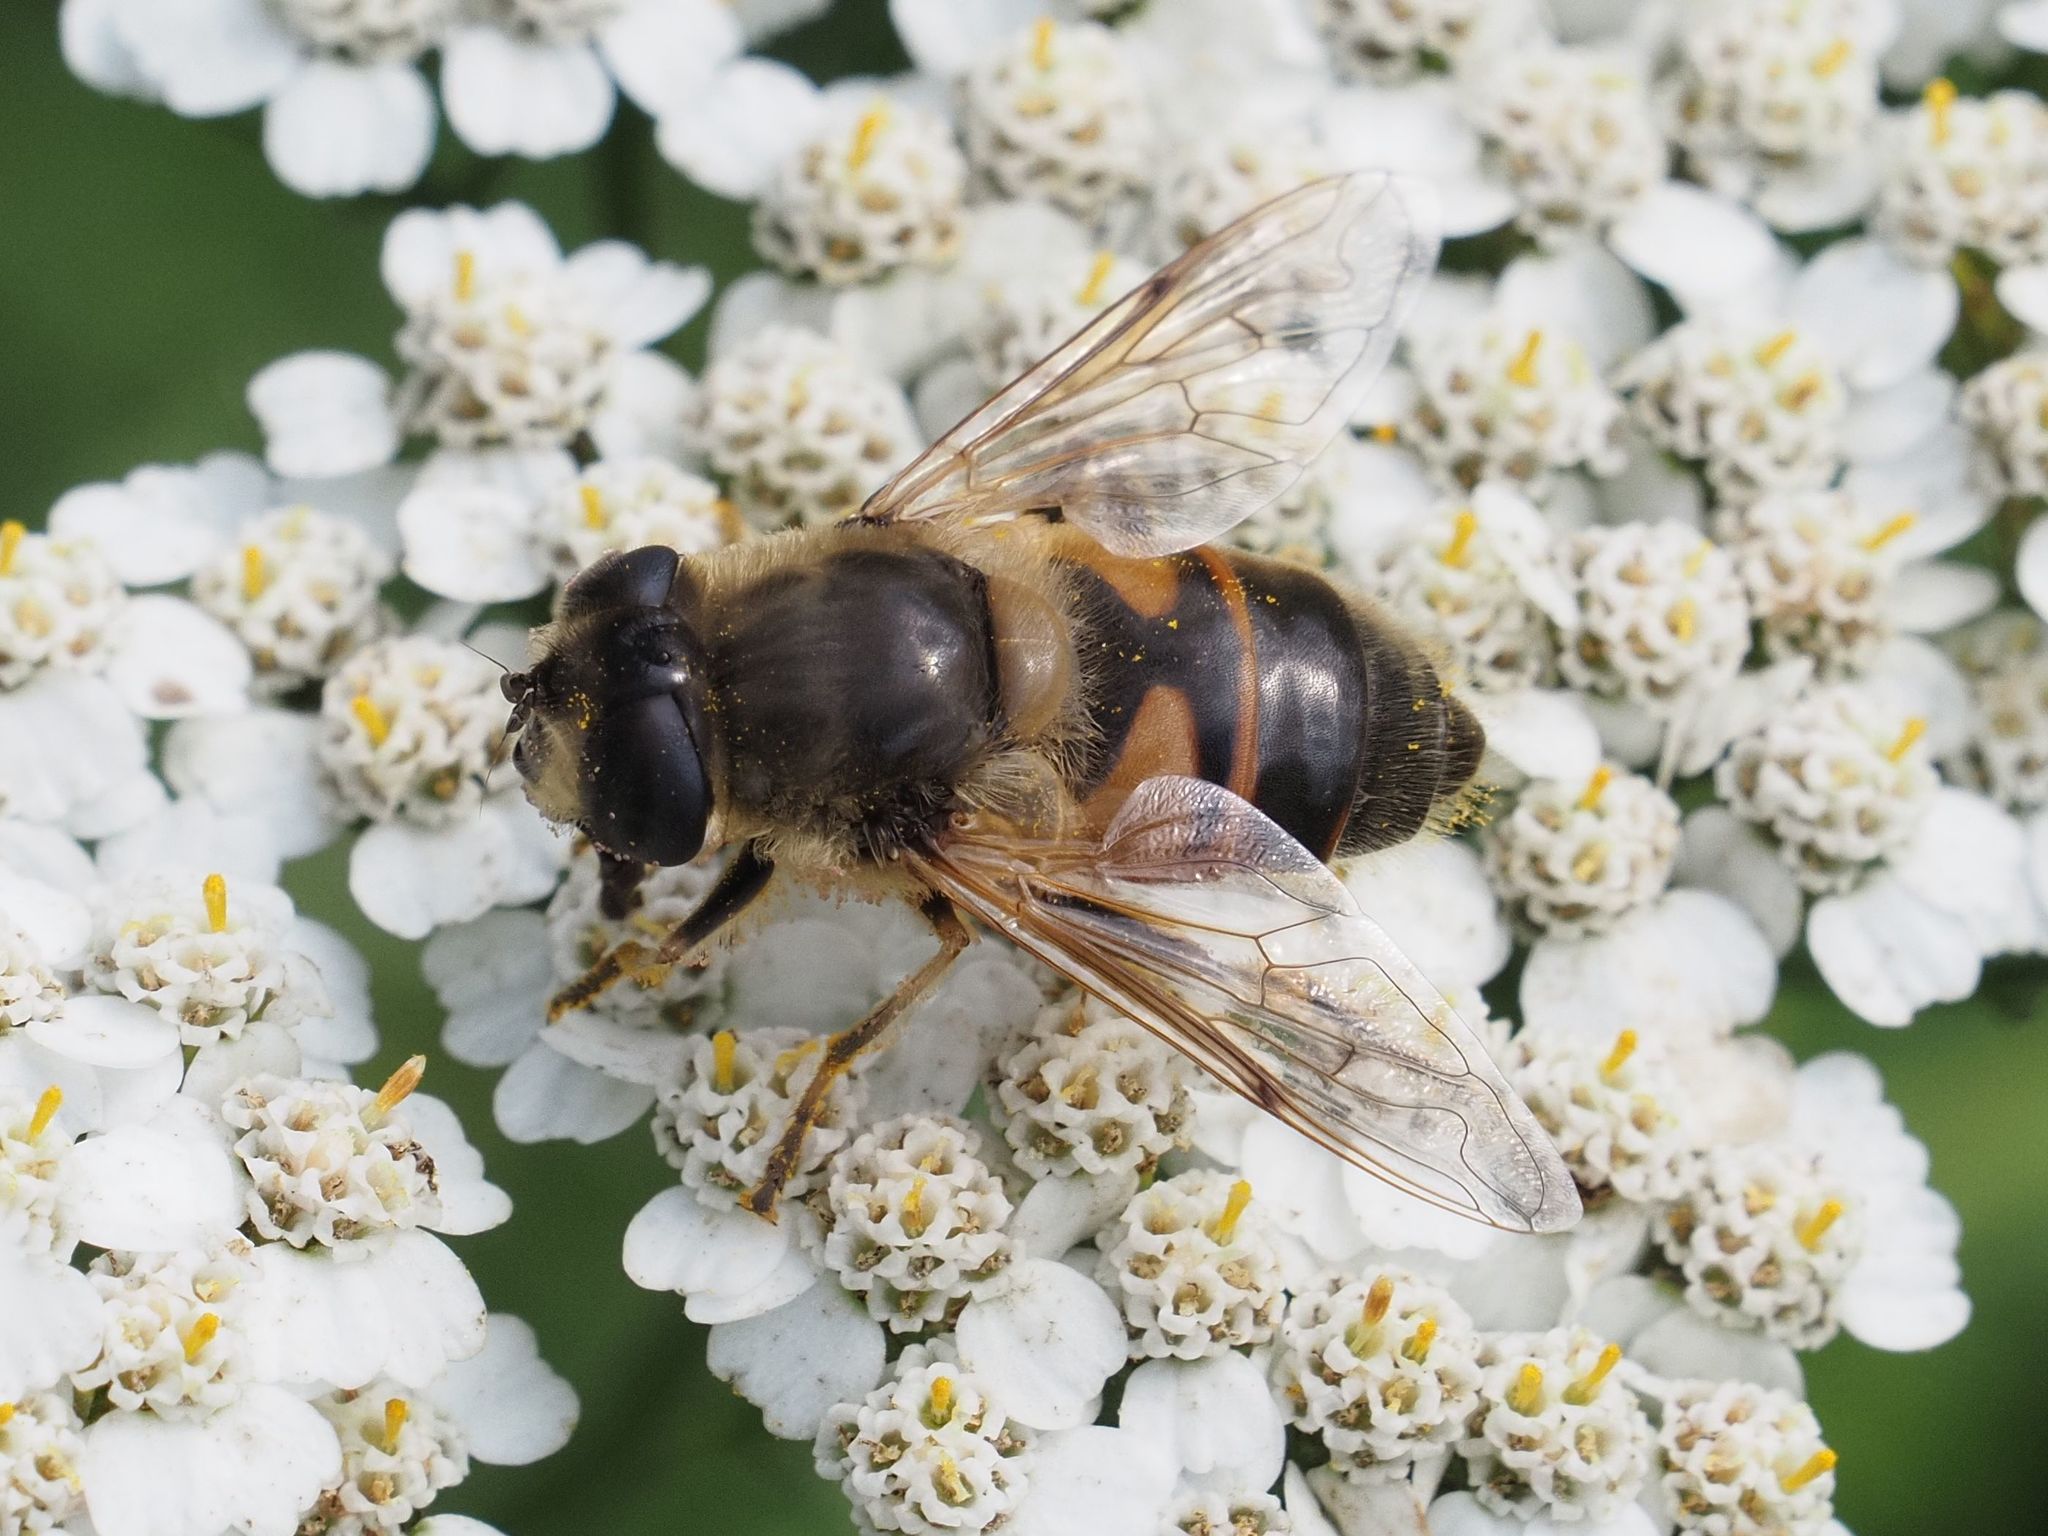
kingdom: Animalia
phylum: Arthropoda
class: Insecta
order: Diptera
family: Syrphidae
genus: Eristalis
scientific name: Eristalis tenax
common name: Drone fly
